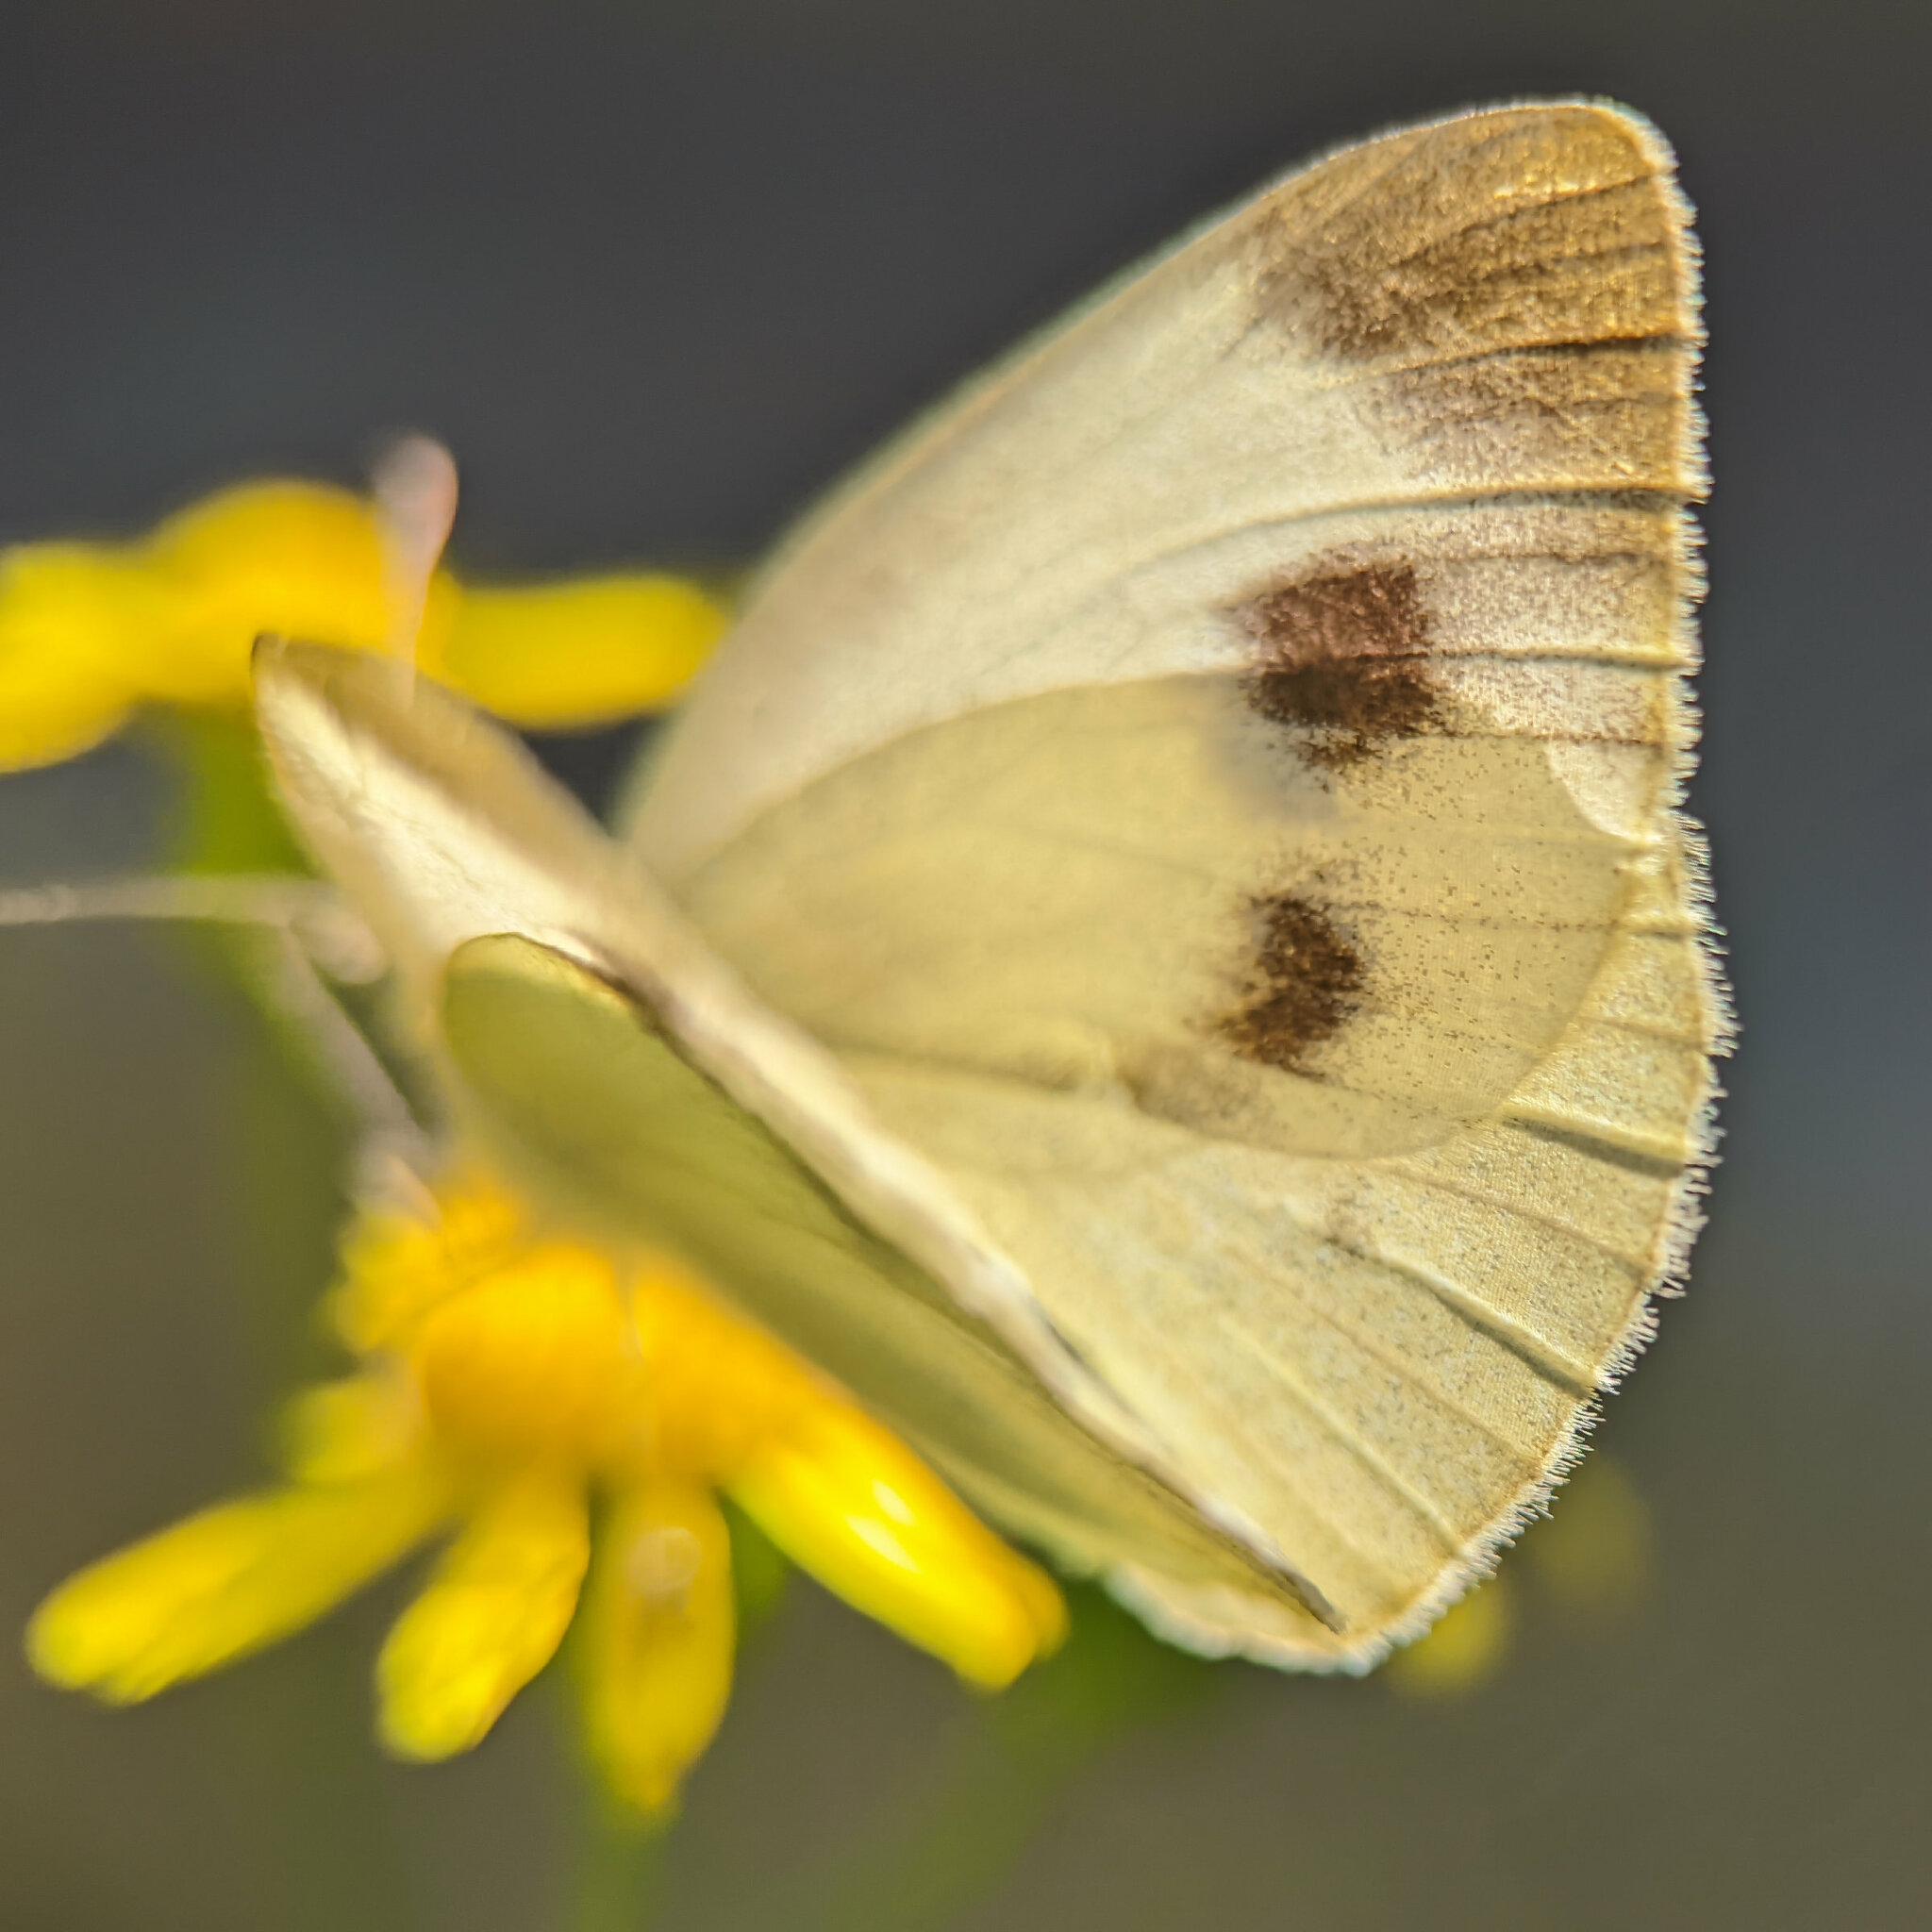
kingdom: Animalia
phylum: Arthropoda
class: Insecta
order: Lepidoptera
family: Pieridae
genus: Pieris
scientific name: Pieris mannii
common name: Southern small white
